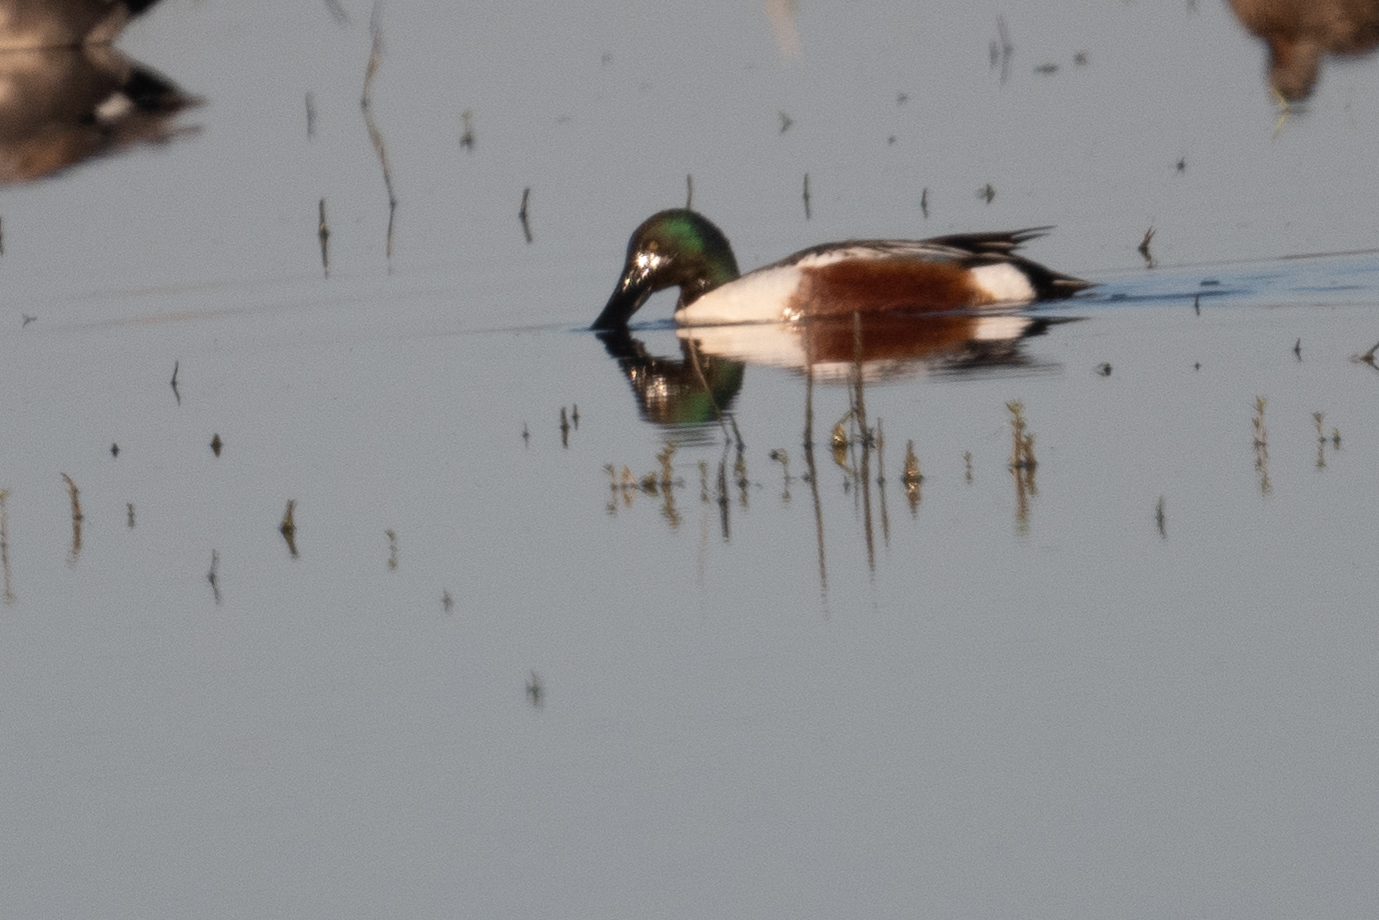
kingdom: Animalia
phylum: Chordata
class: Aves
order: Anseriformes
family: Anatidae
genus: Spatula
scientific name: Spatula clypeata
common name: Northern shoveler
